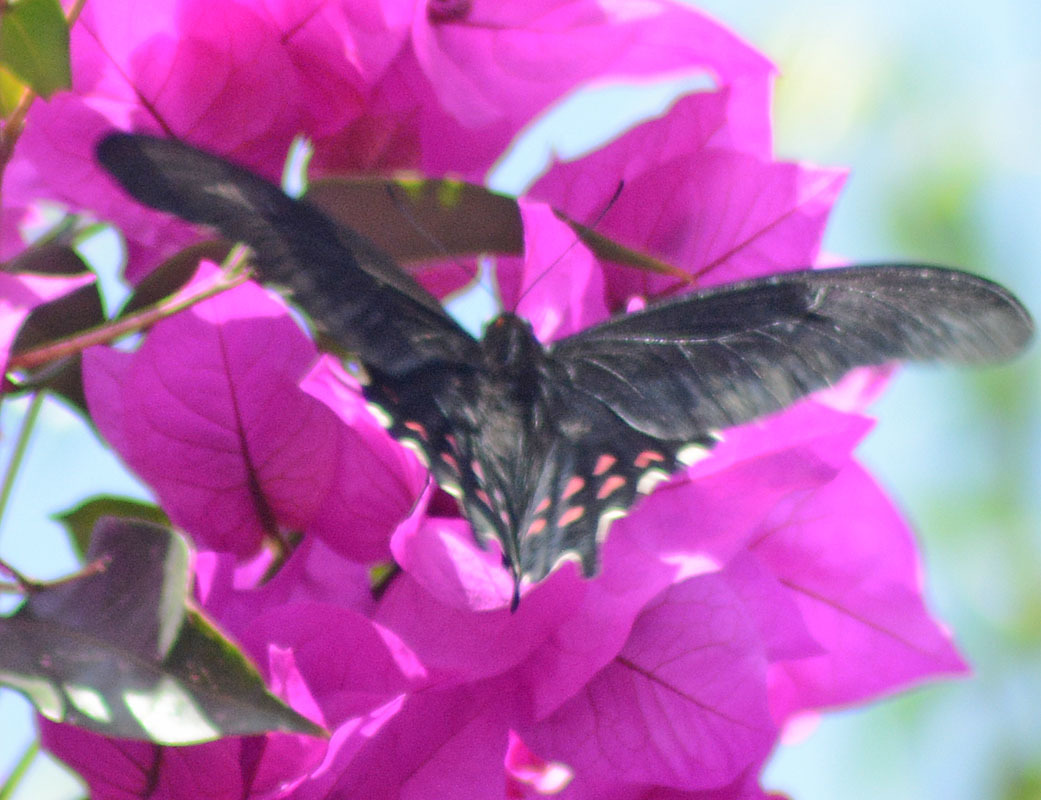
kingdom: Animalia
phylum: Arthropoda
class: Insecta
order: Lepidoptera
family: Papilionidae
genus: Heraclides
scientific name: Heraclides rogeri
